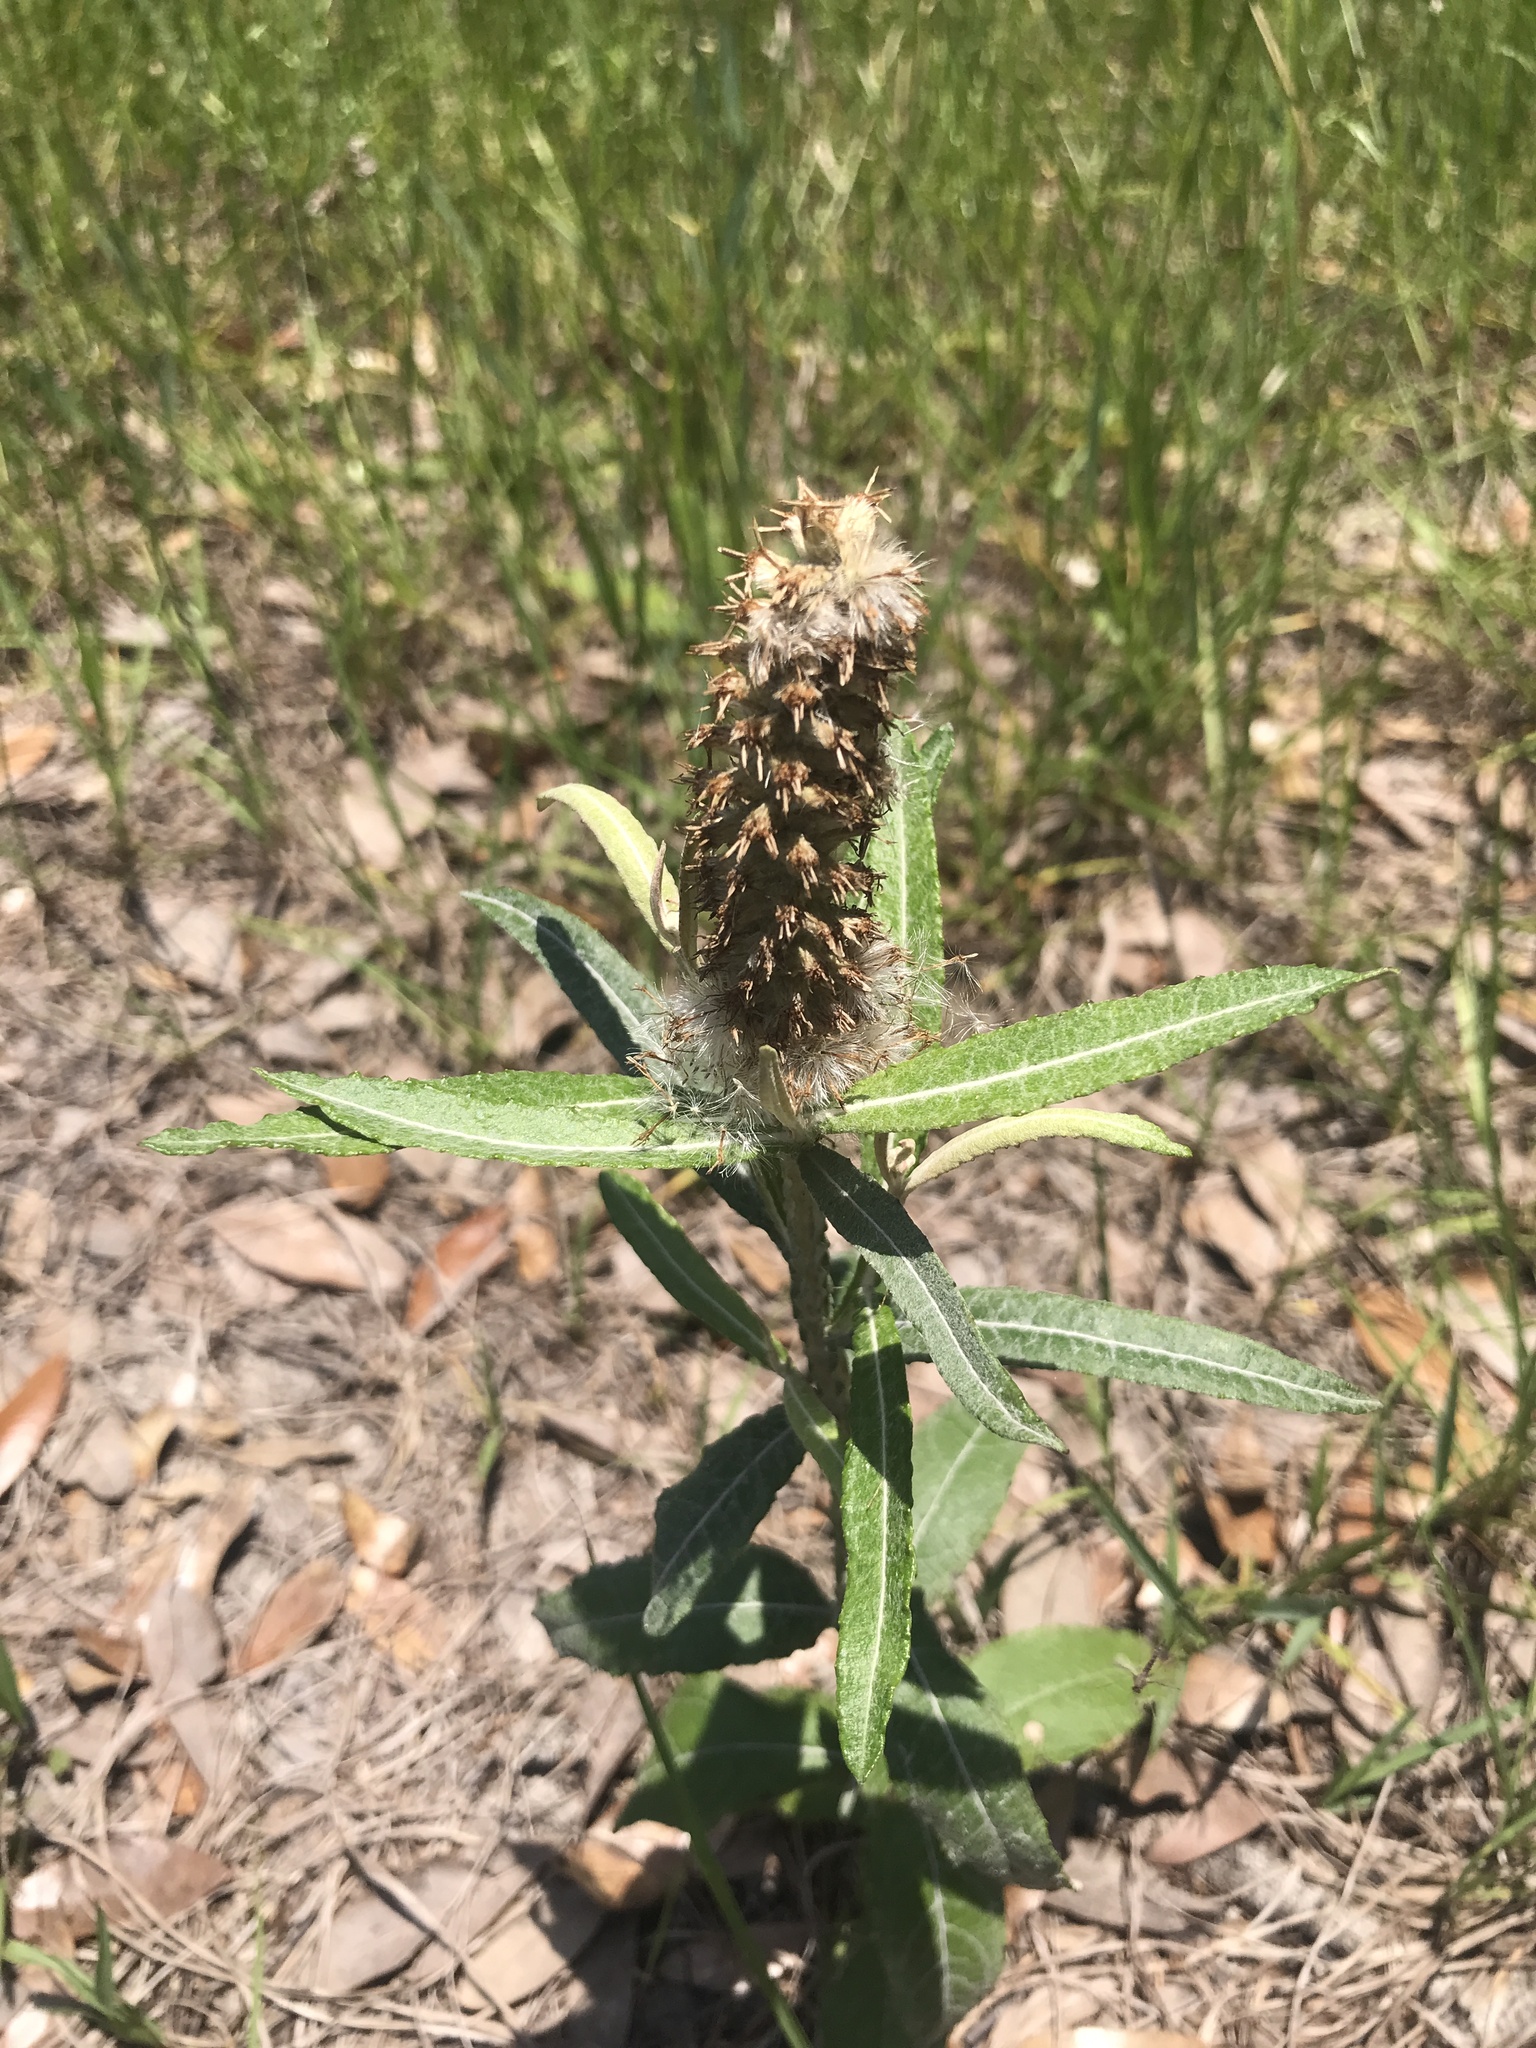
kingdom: Plantae
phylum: Tracheophyta
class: Magnoliopsida
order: Asterales
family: Asteraceae
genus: Pterocaulon
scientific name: Pterocaulon pycnostachyum
